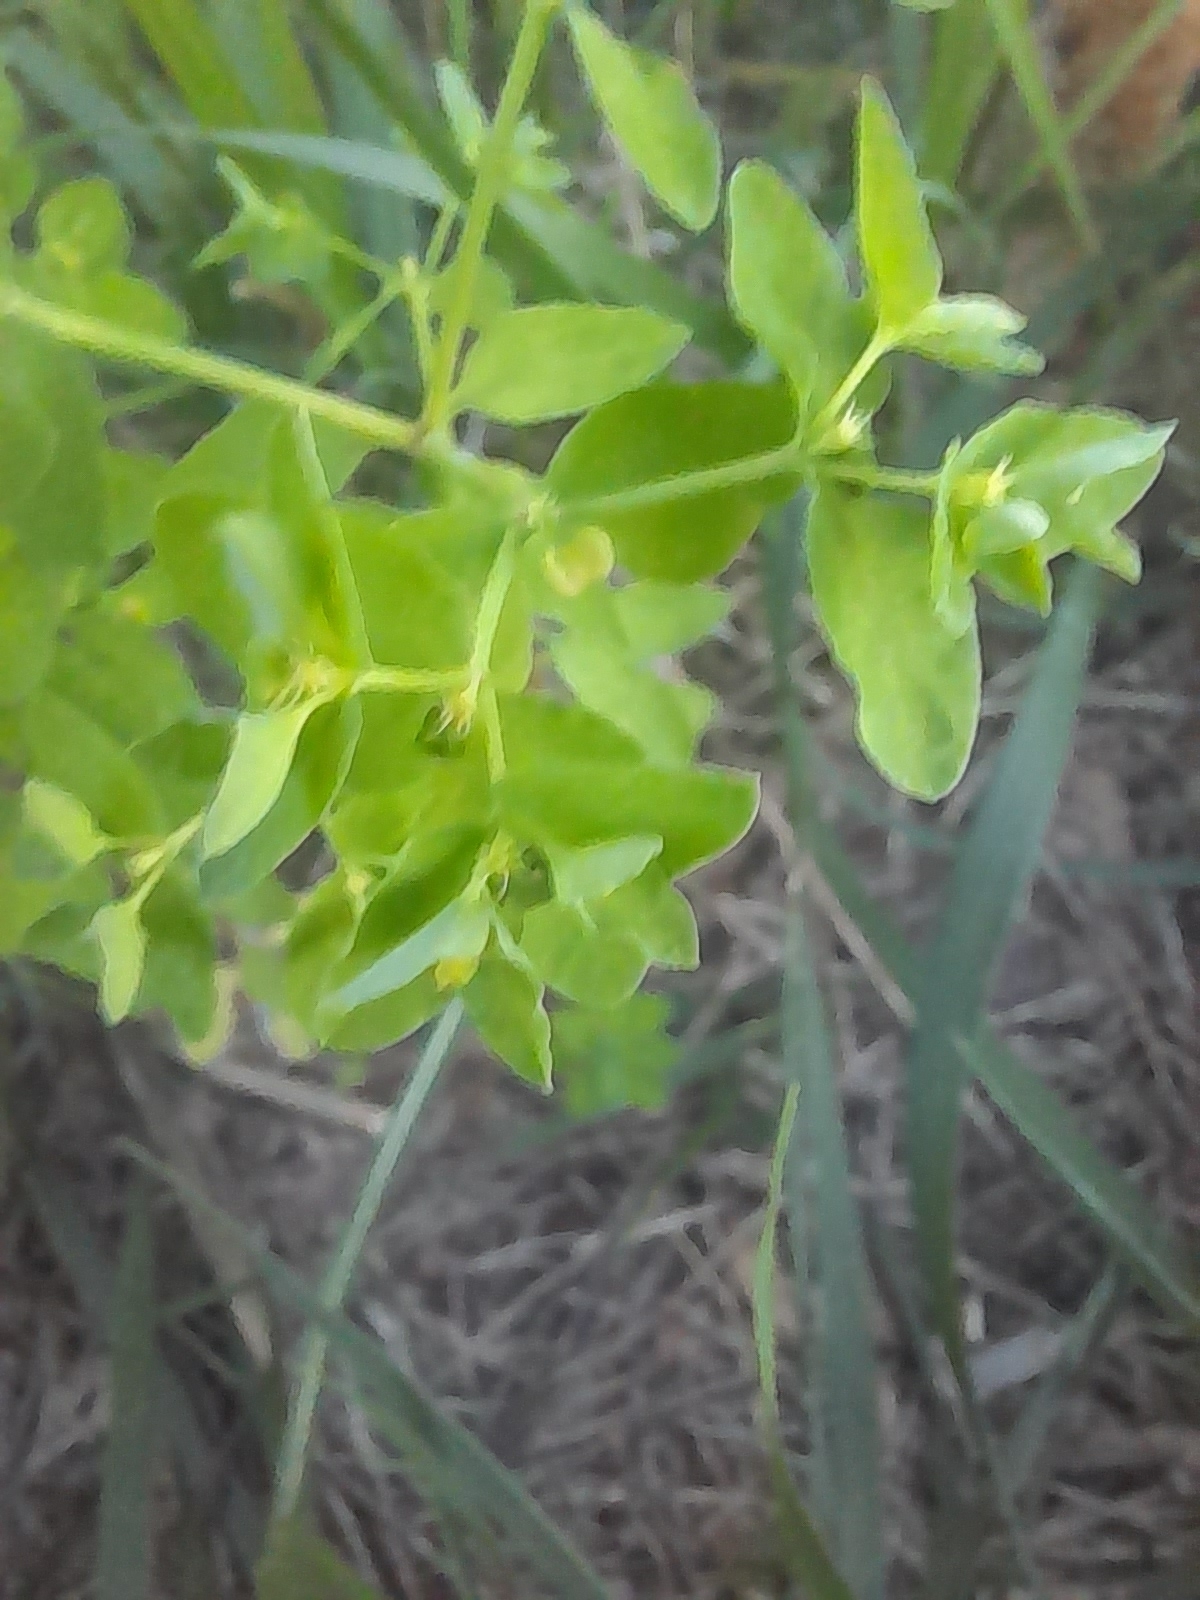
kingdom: Plantae
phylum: Tracheophyta
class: Magnoliopsida
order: Malpighiales
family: Euphorbiaceae
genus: Euphorbia
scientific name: Euphorbia peplus
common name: Petty spurge
